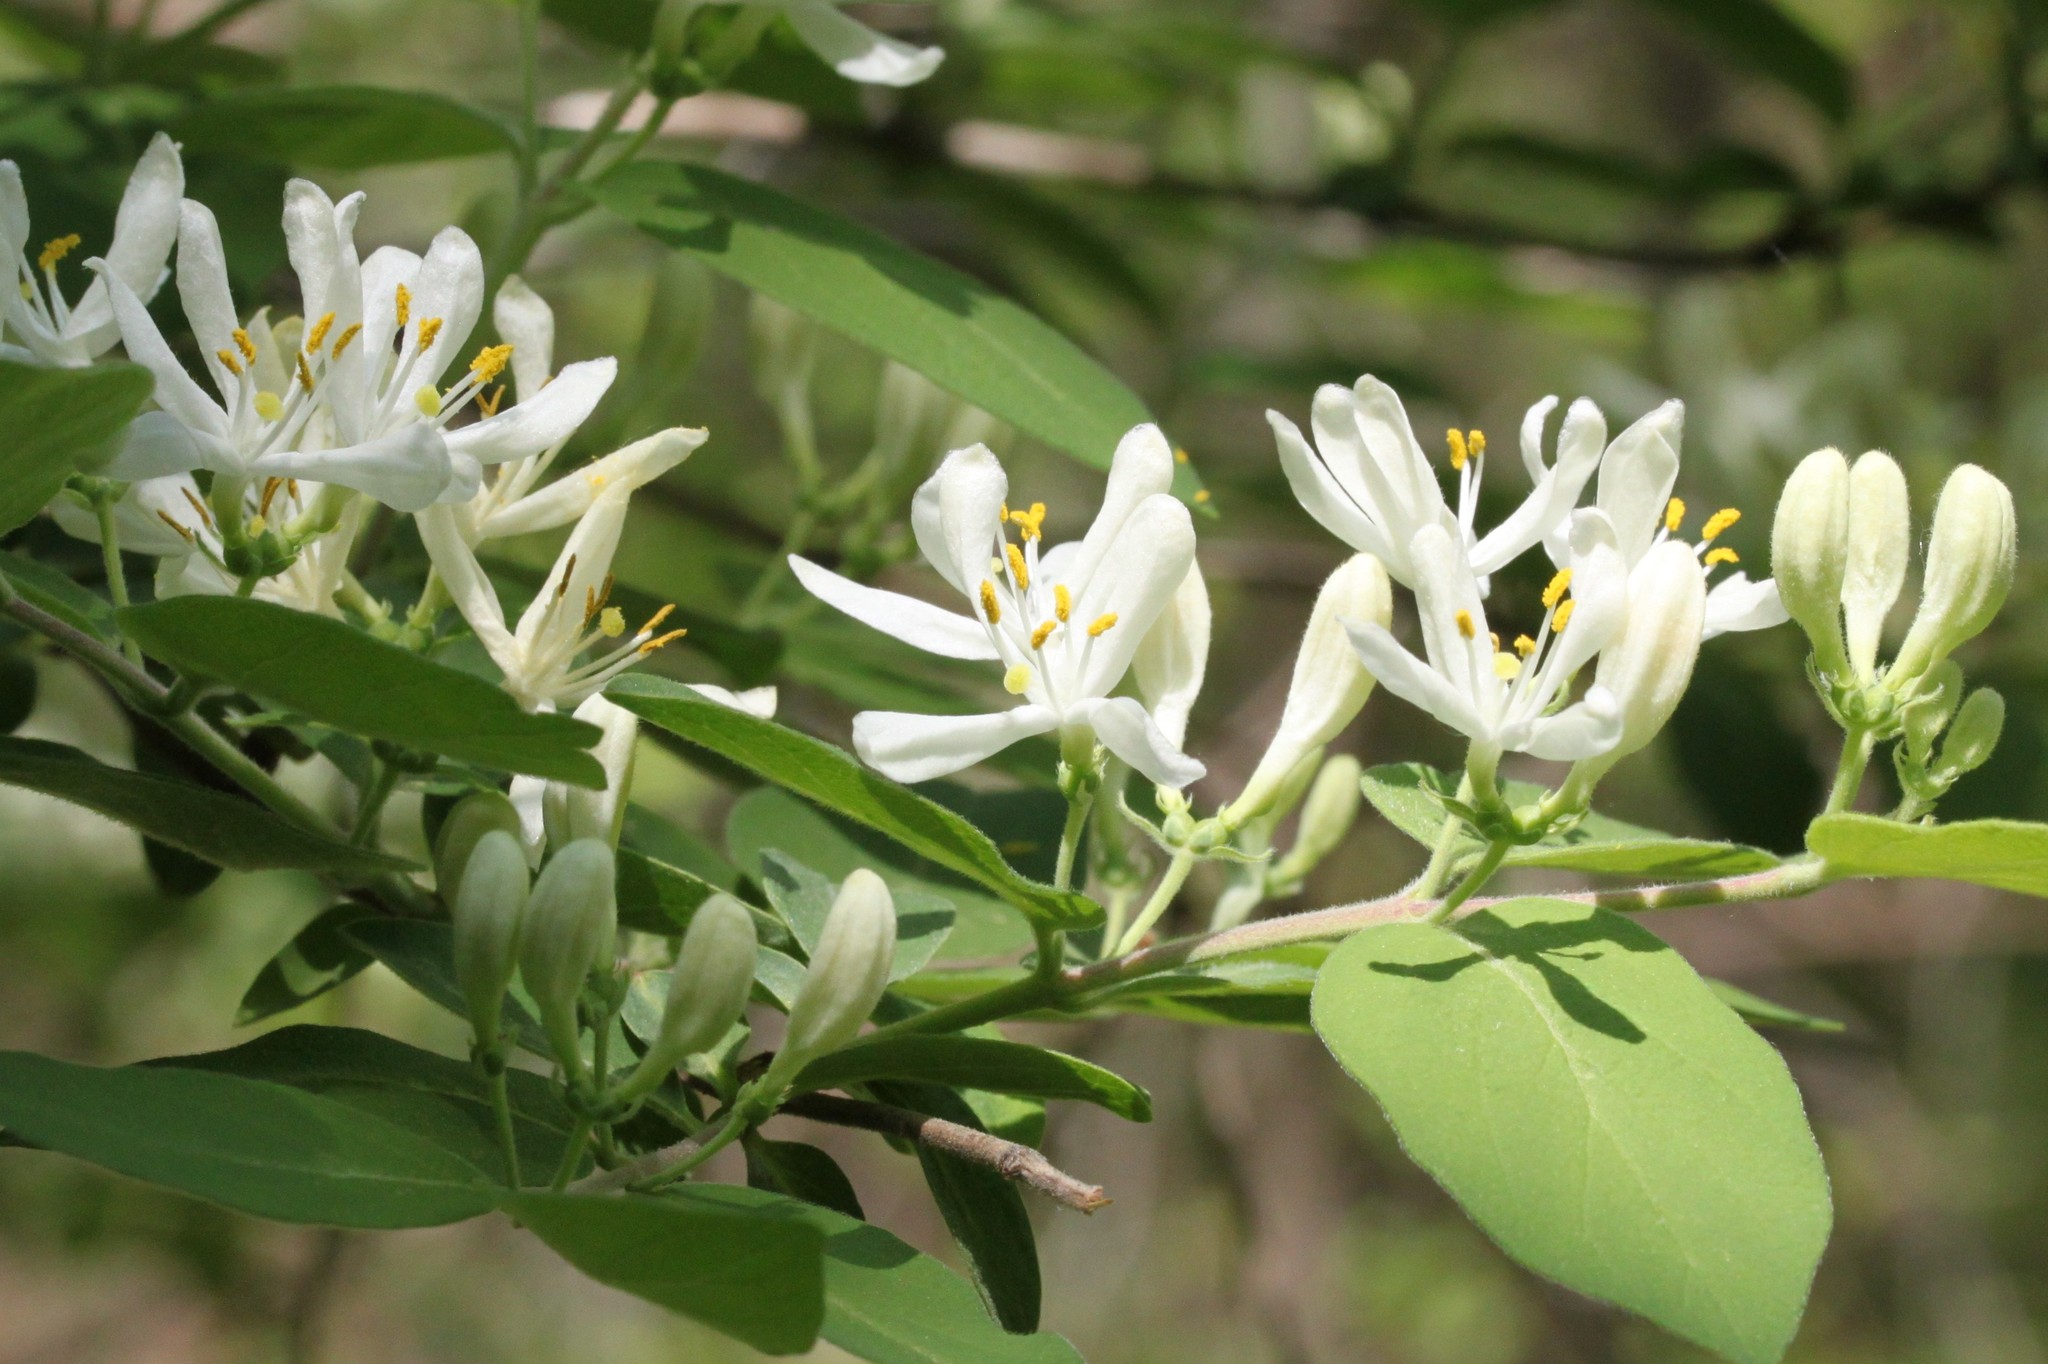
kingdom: Plantae
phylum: Tracheophyta
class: Magnoliopsida
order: Dipsacales
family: Caprifoliaceae
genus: Lonicera
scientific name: Lonicera morrowii
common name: Morrow's honeysuckle
